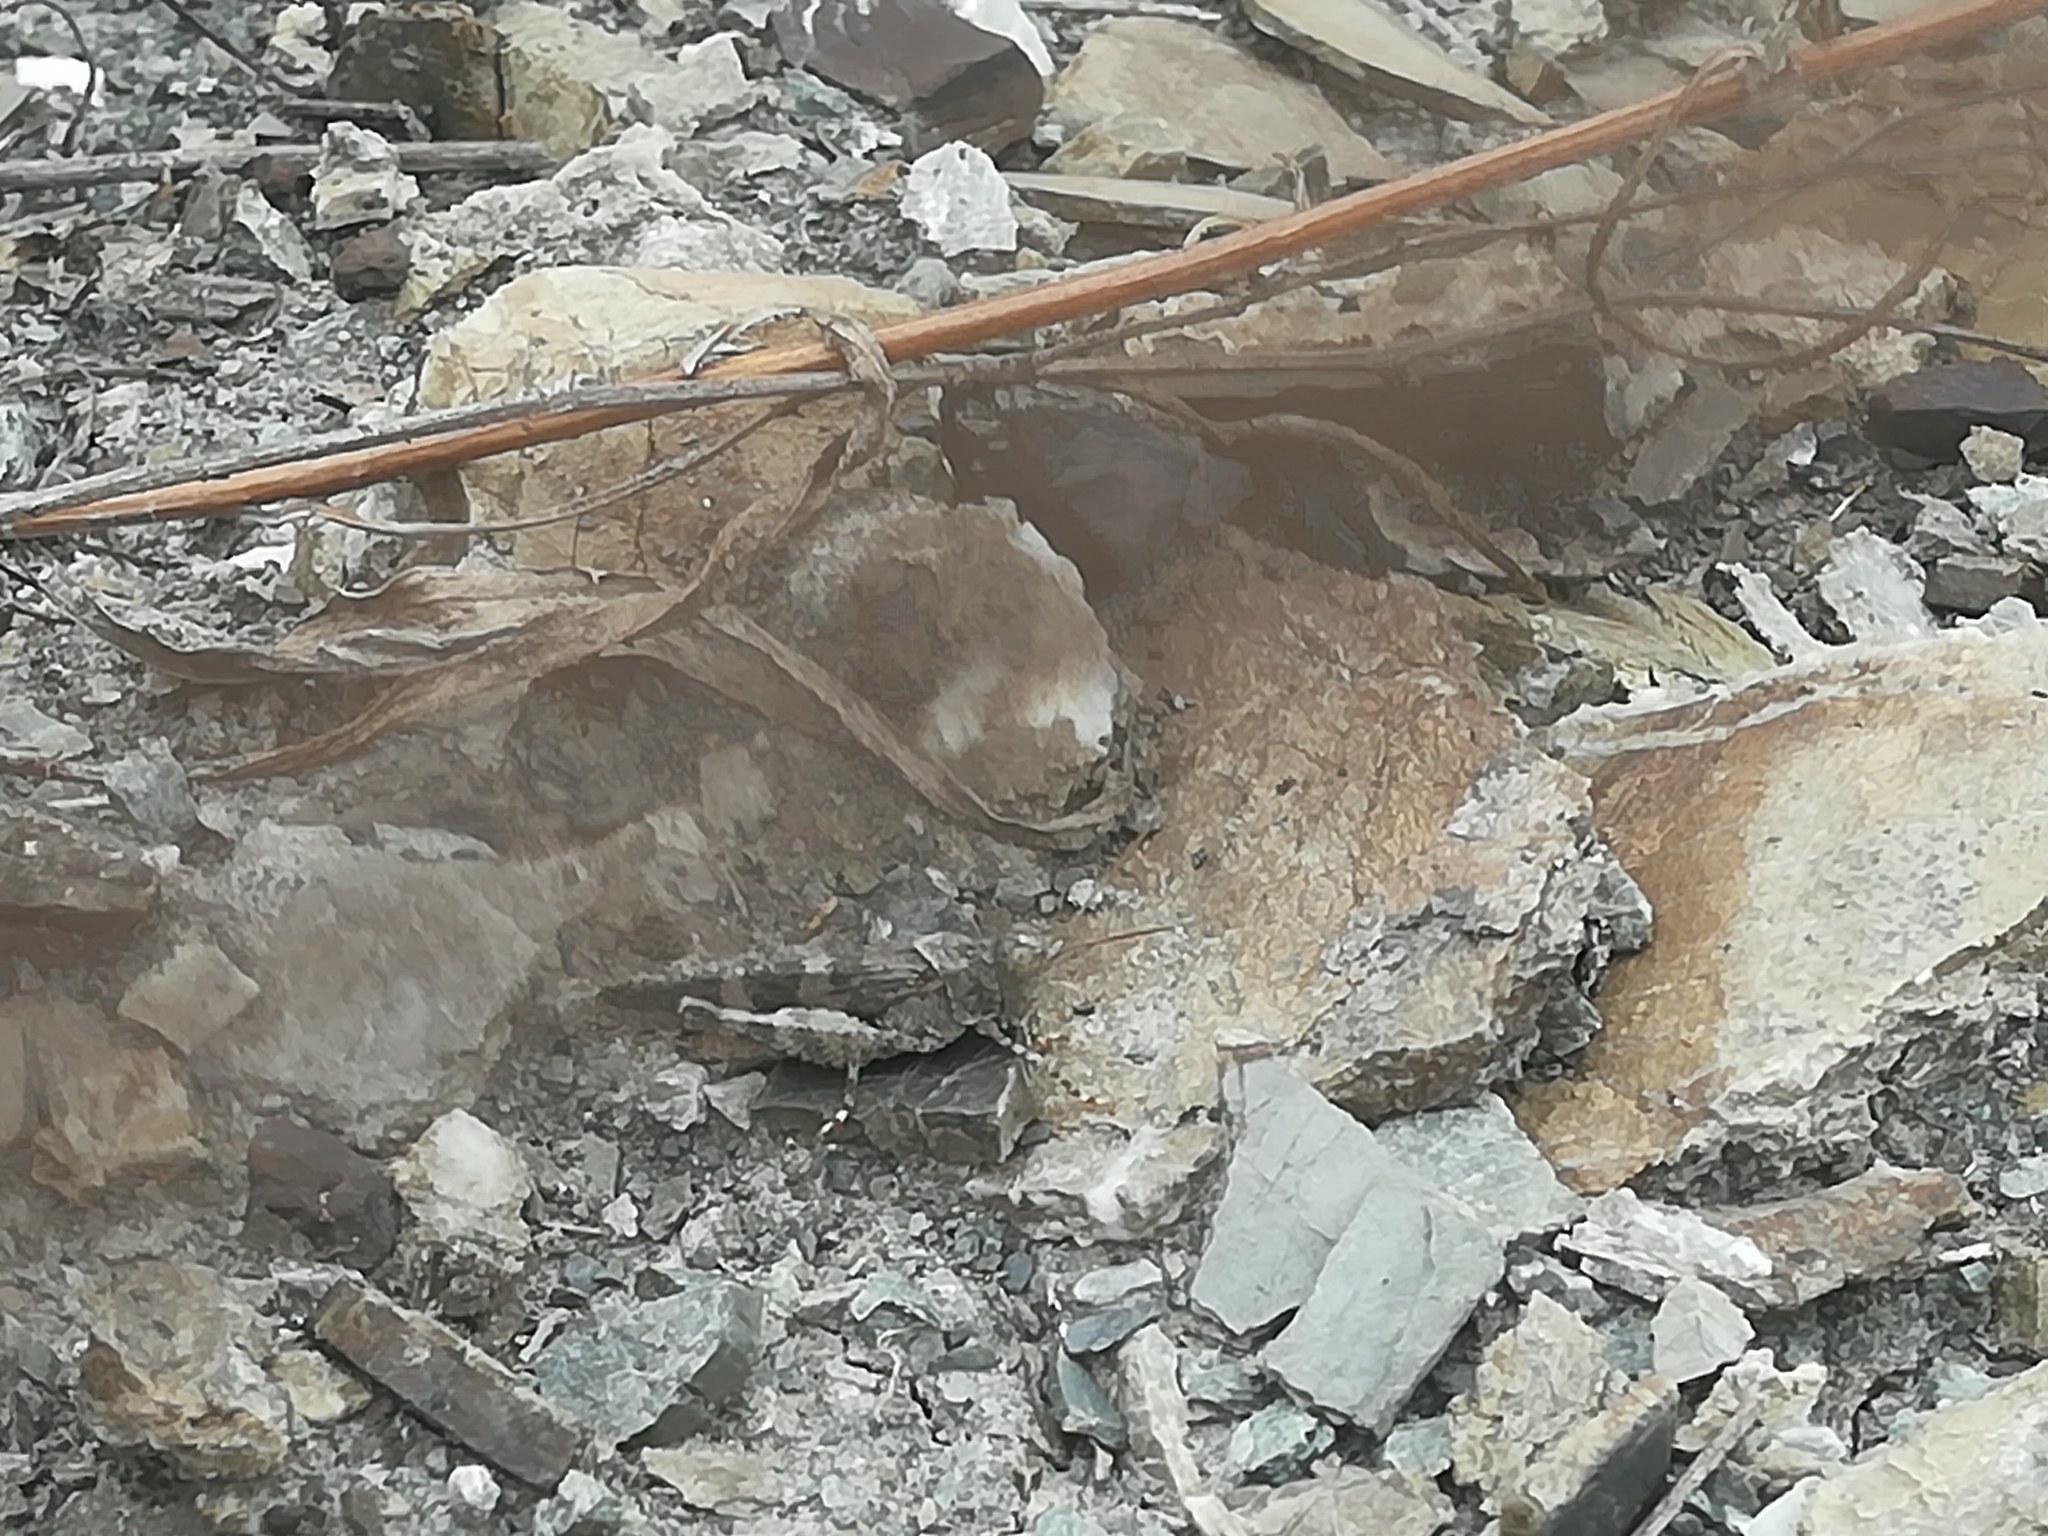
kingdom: Animalia
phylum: Arthropoda
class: Insecta
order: Orthoptera
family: Acrididae
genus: Oedipoda
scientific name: Oedipoda germanica
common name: Red band-winged grasshopper
